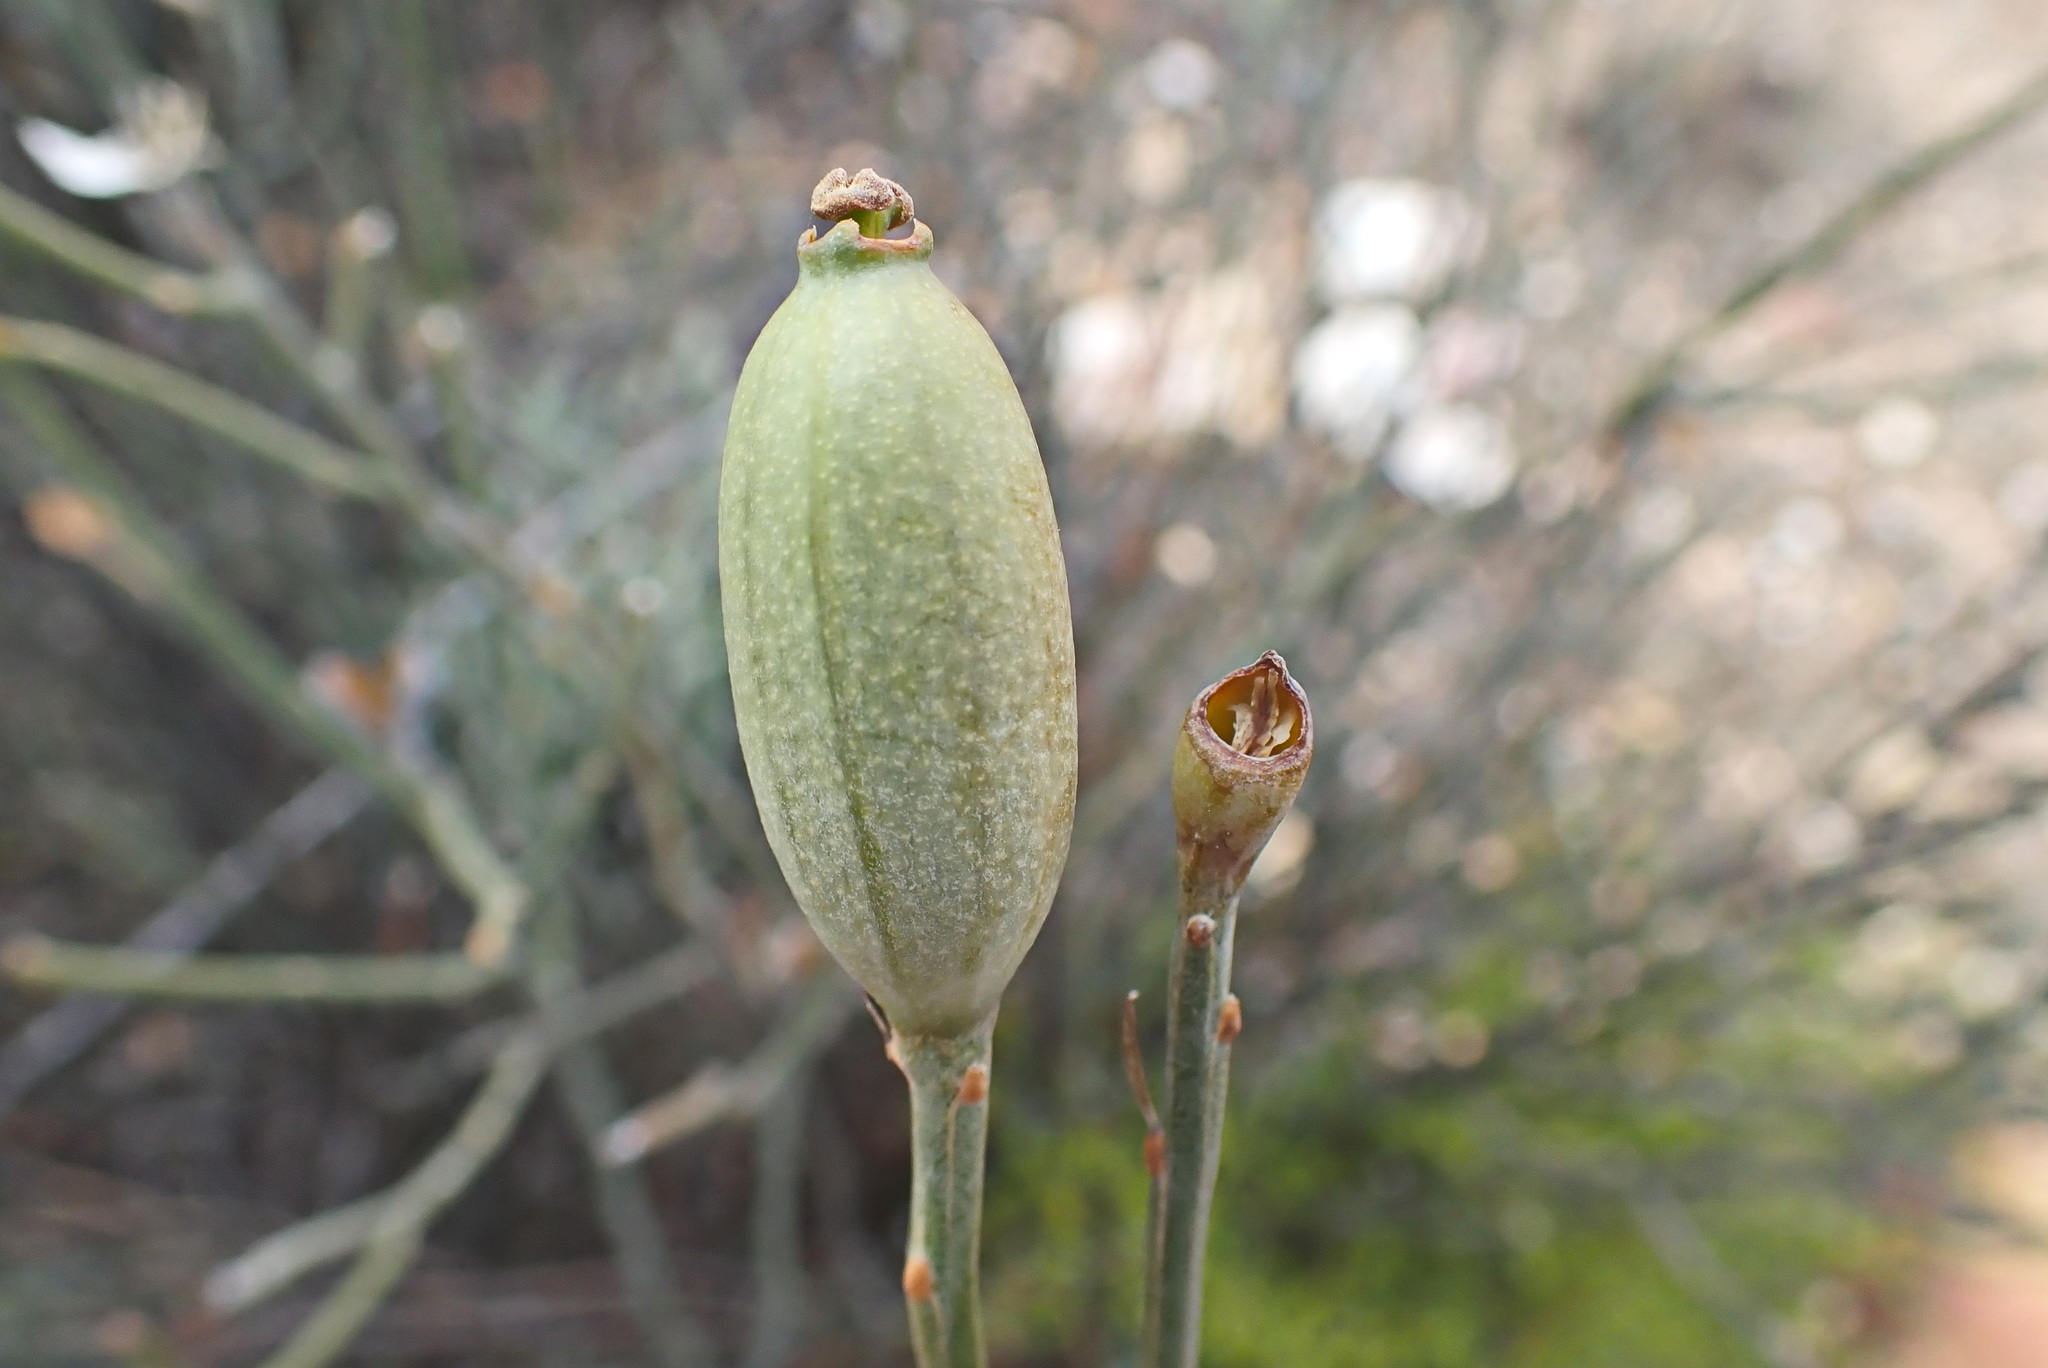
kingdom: Plantae
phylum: Tracheophyta
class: Magnoliopsida
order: Solanales
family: Montiniaceae
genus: Montinia
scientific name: Montinia caryophyllacea
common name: Wild clove-bush
